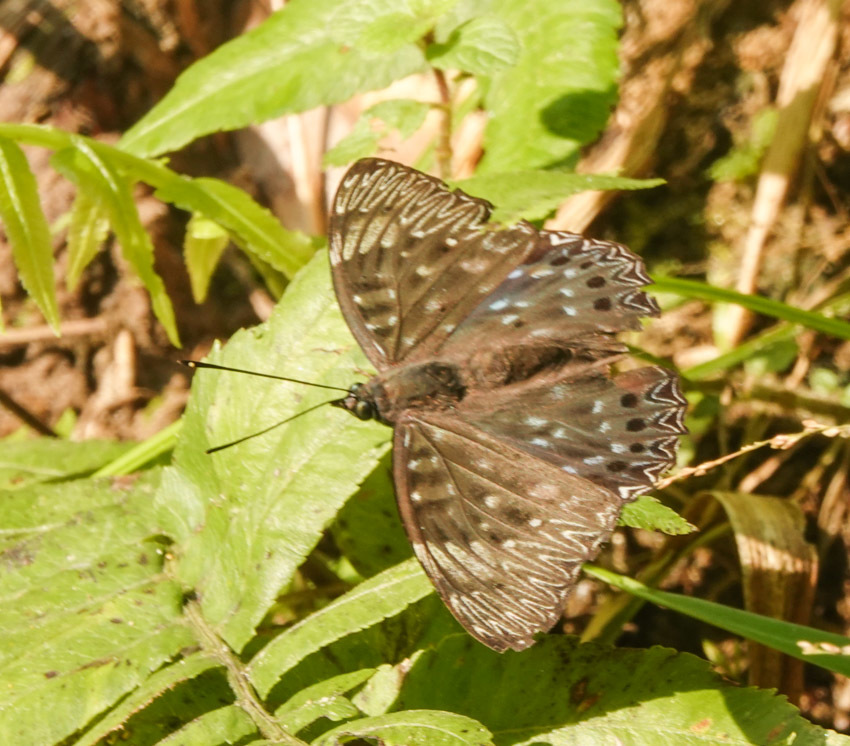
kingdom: Animalia
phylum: Arthropoda
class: Insecta
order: Lepidoptera
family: Nymphalidae
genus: Dichorragia
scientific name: Dichorragia nesimachus
